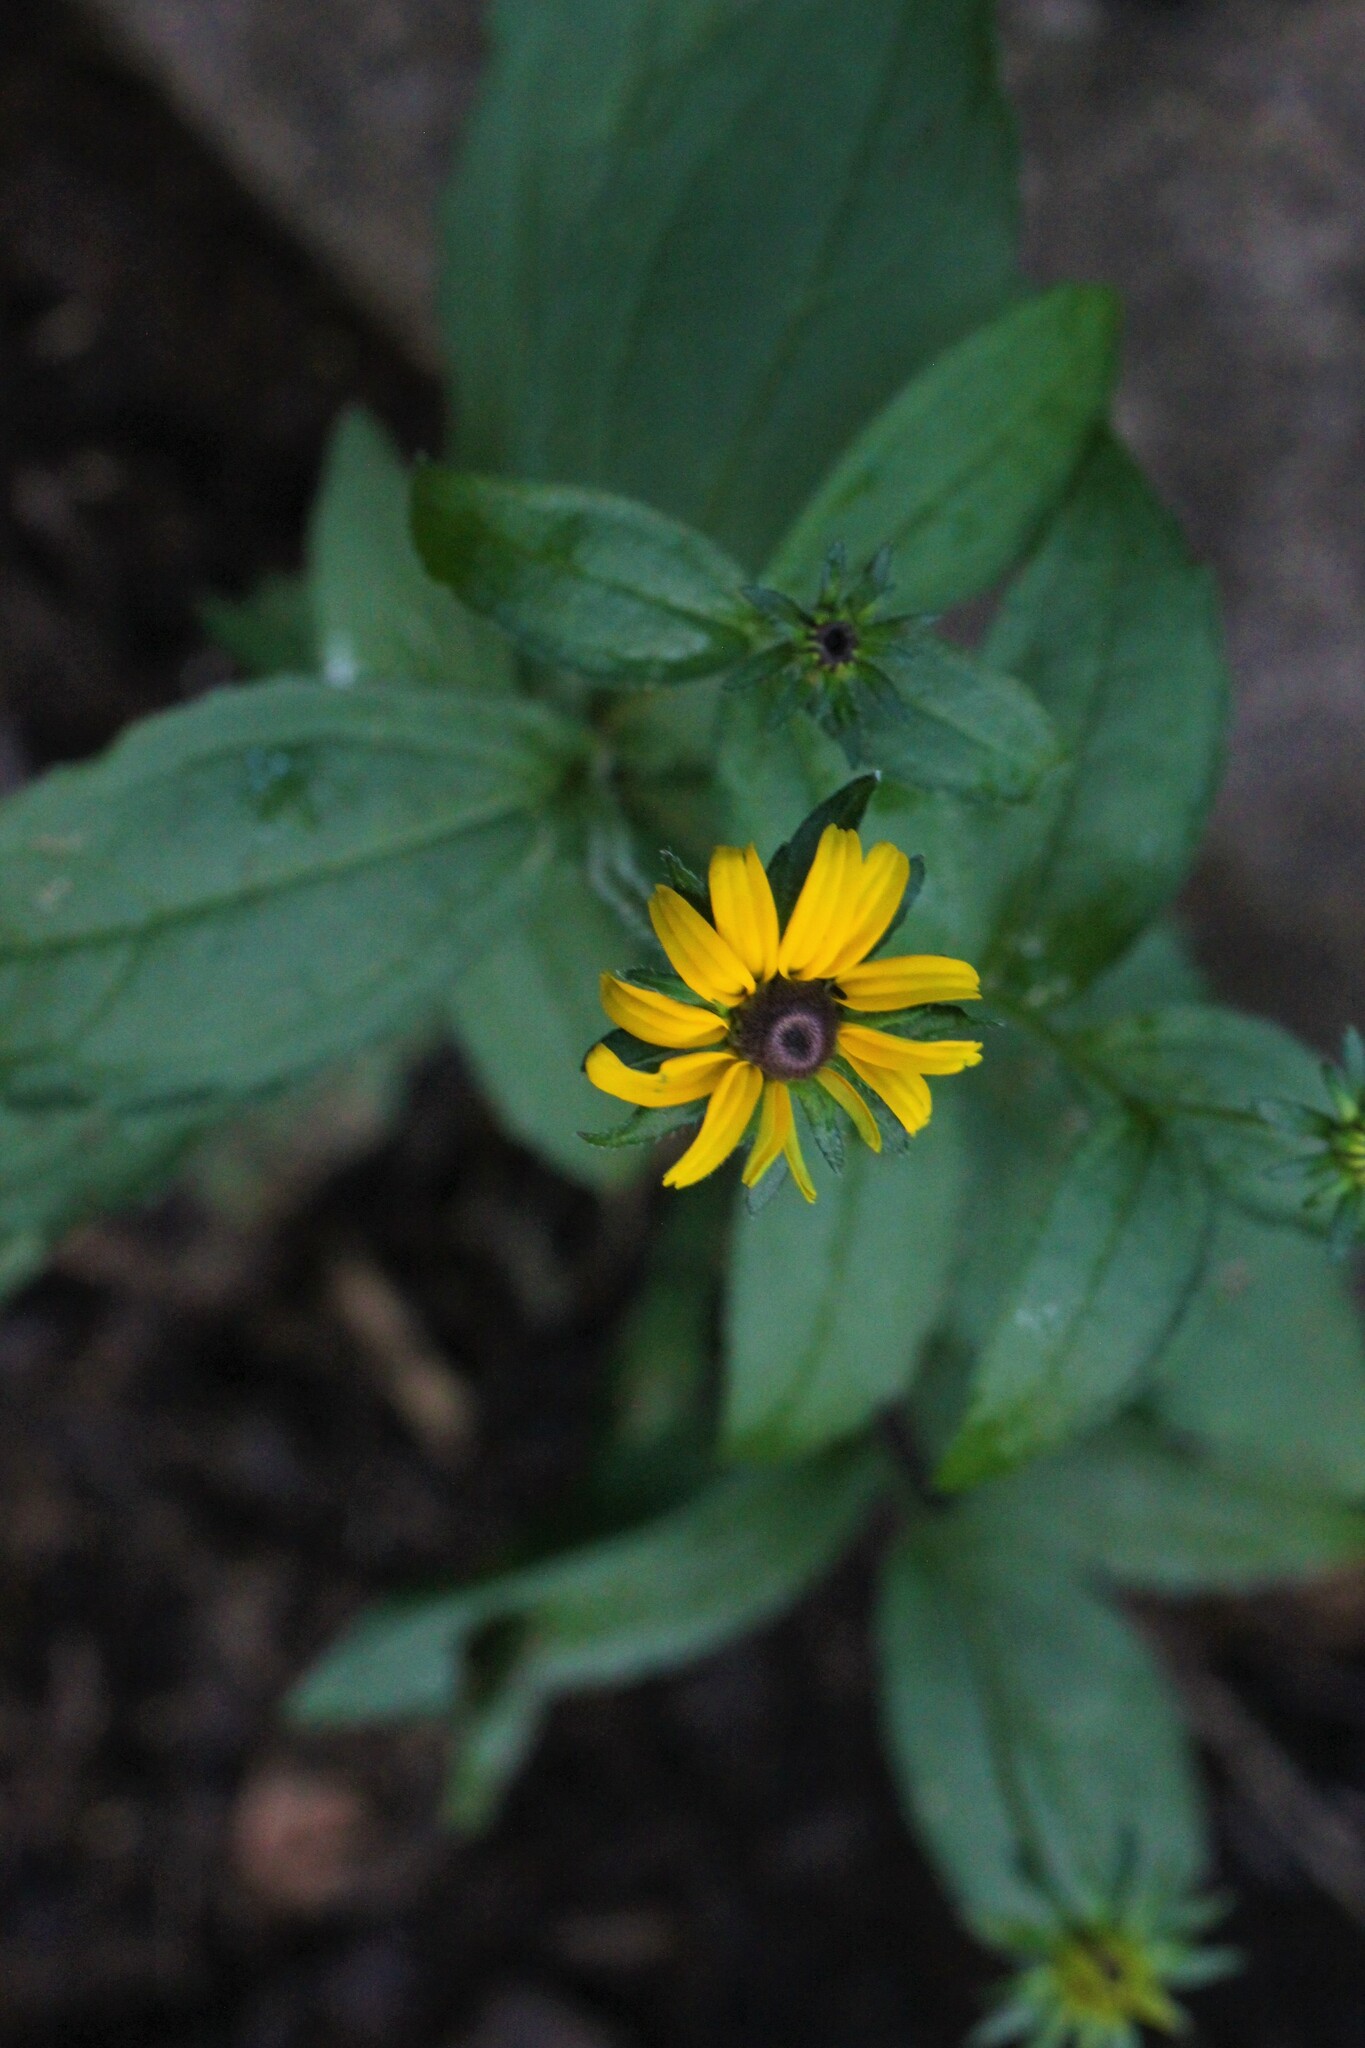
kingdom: Plantae
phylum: Tracheophyta
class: Magnoliopsida
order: Asterales
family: Asteraceae
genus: Rudbeckia
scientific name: Rudbeckia hirta
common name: Black-eyed-susan
